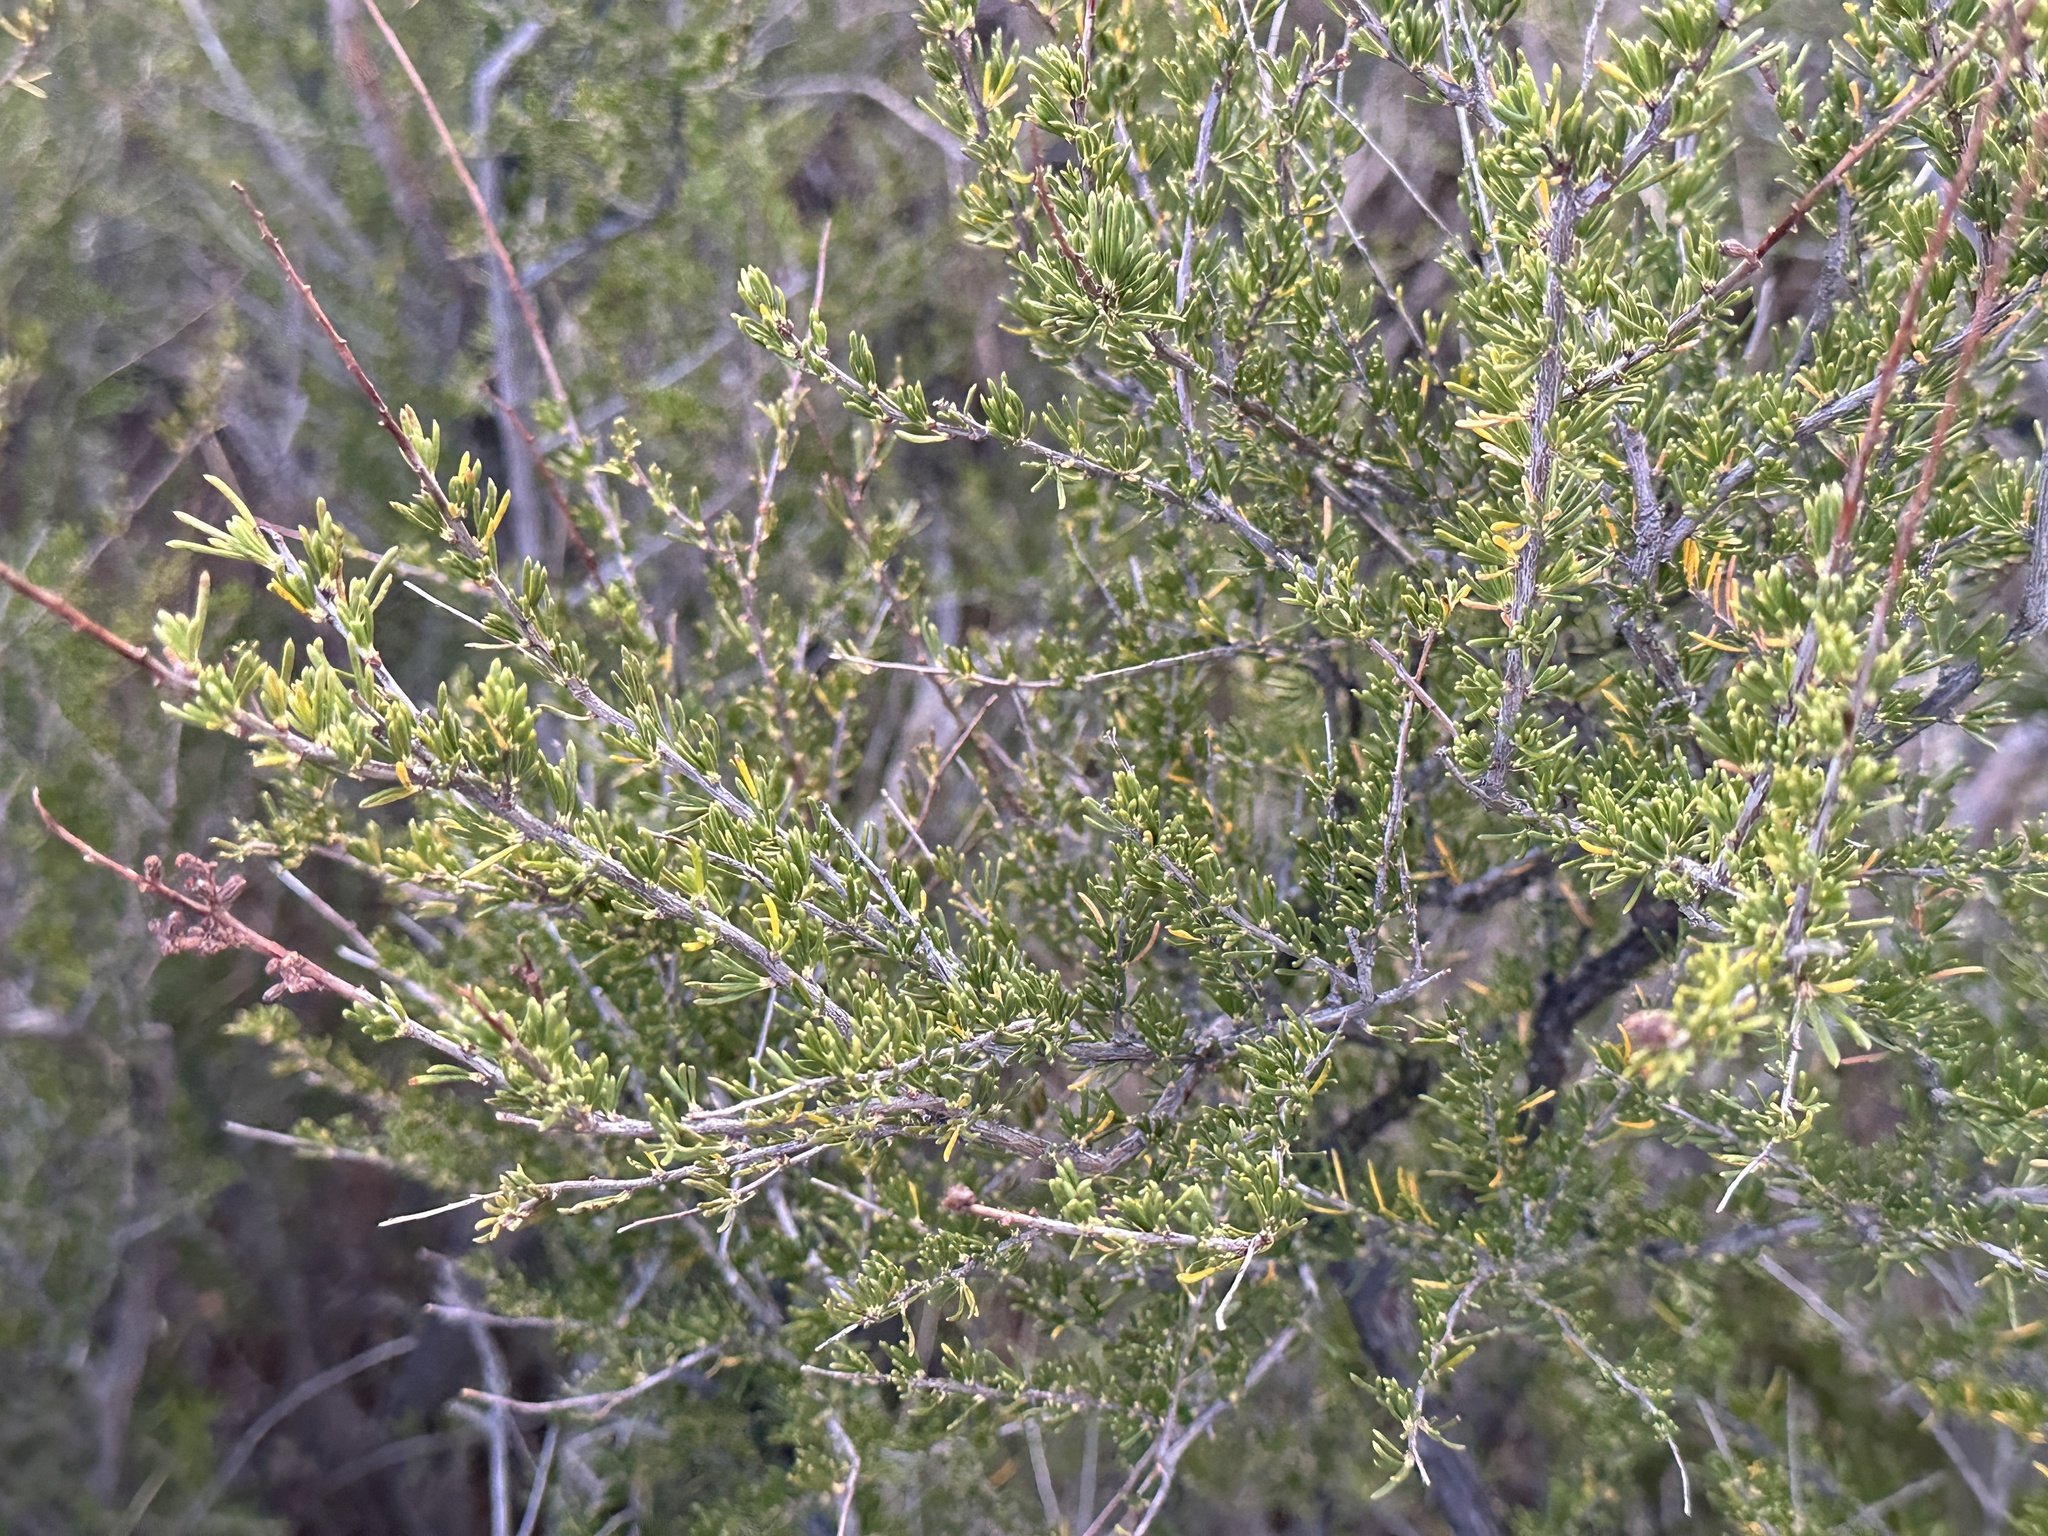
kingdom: Plantae
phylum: Tracheophyta
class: Magnoliopsida
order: Rosales
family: Rosaceae
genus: Adenostoma
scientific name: Adenostoma fasciculatum
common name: Chamise
